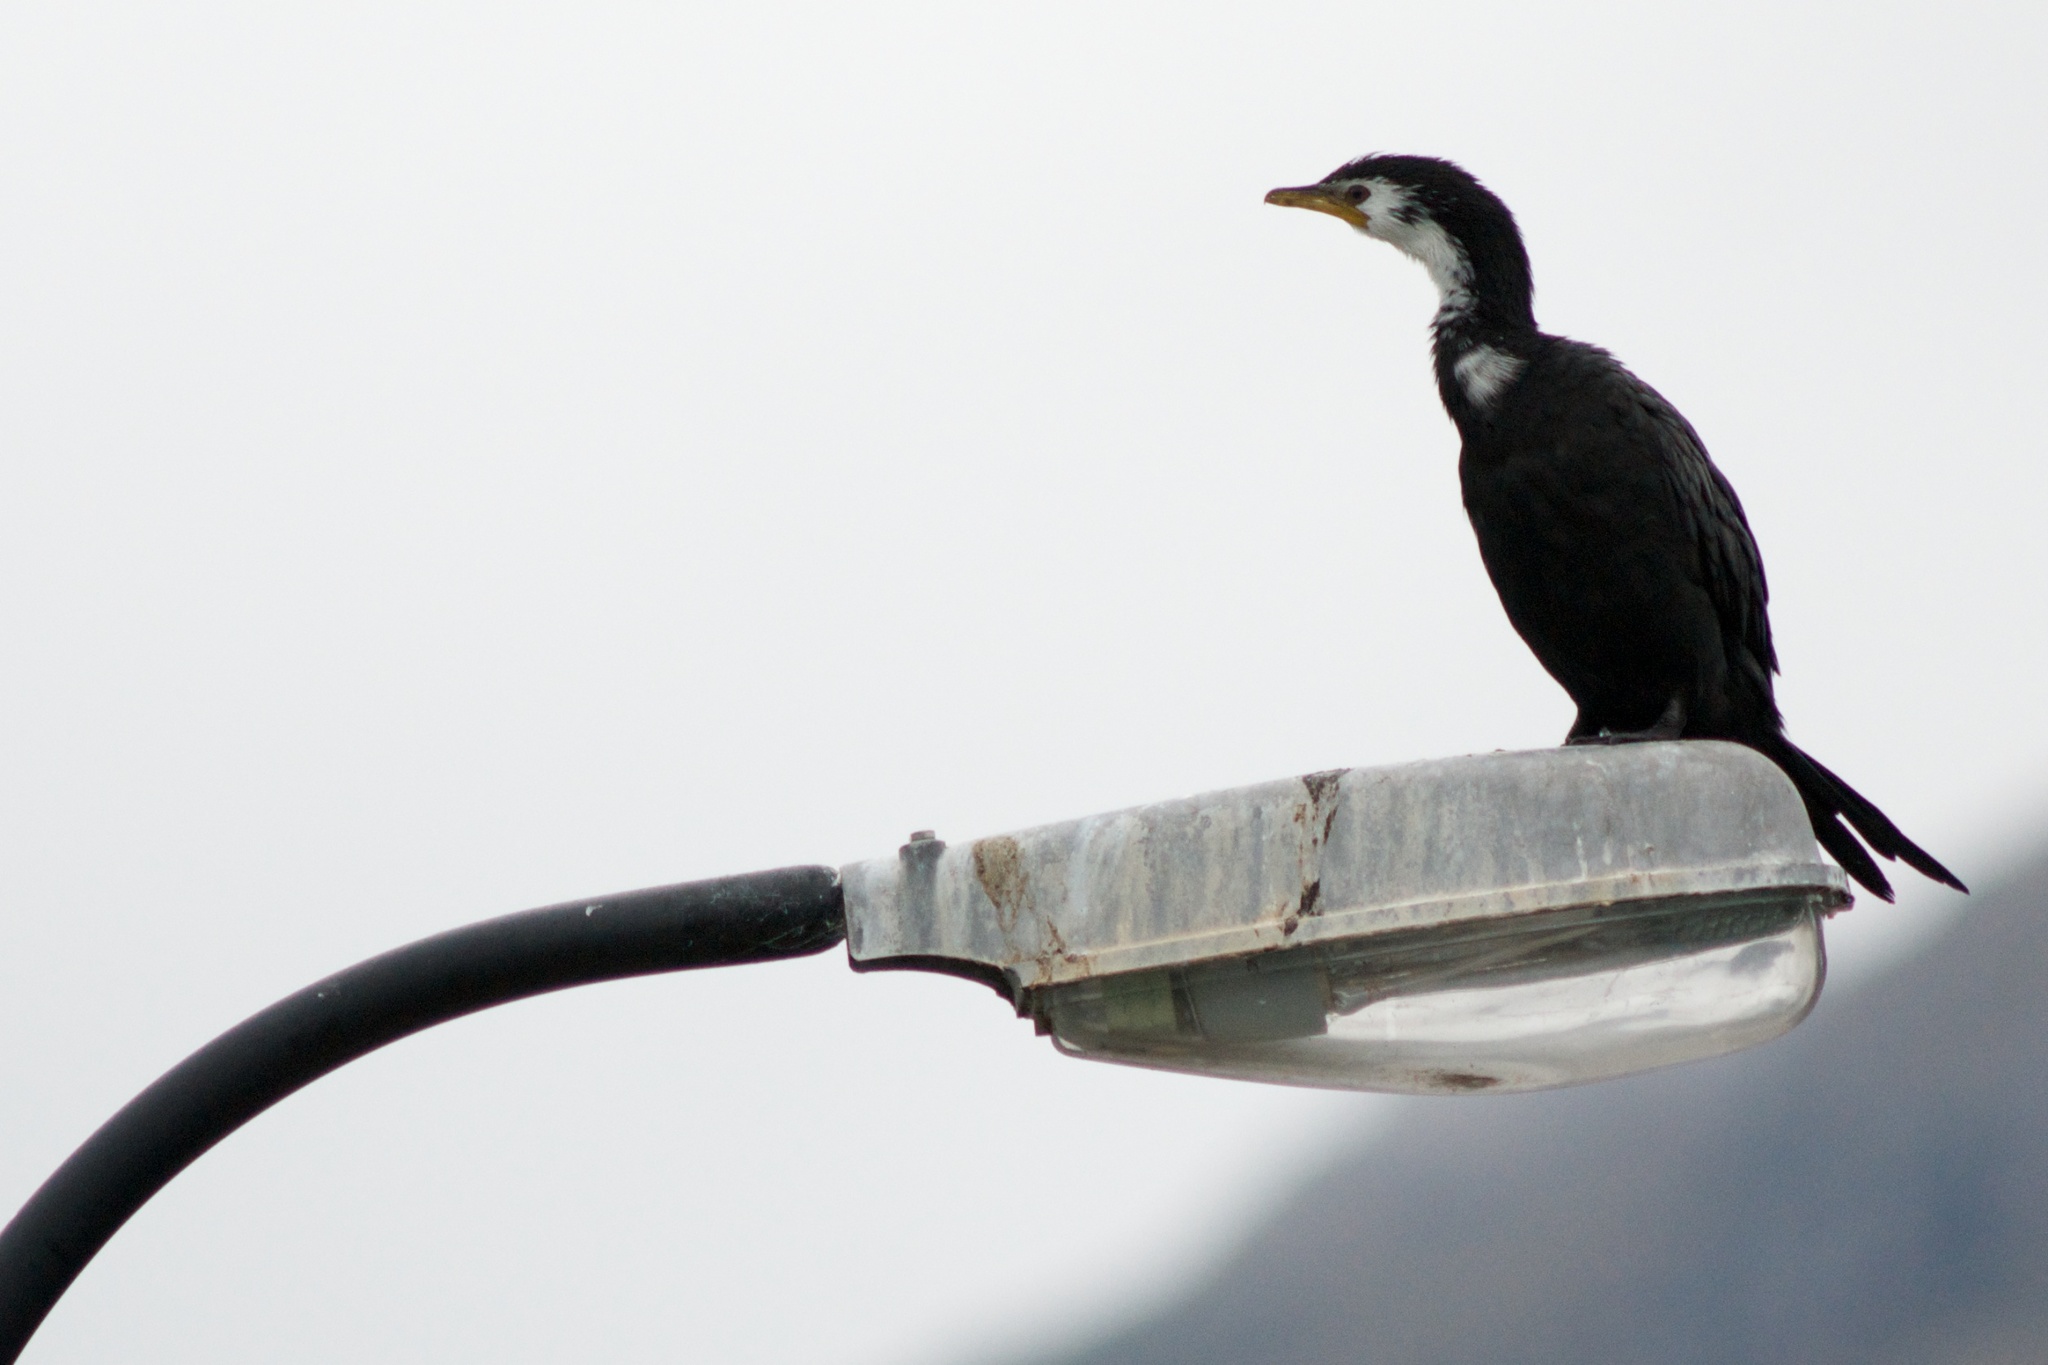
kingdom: Animalia
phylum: Chordata
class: Aves
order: Suliformes
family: Phalacrocoracidae
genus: Microcarbo
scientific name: Microcarbo melanoleucos
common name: Little pied cormorant
